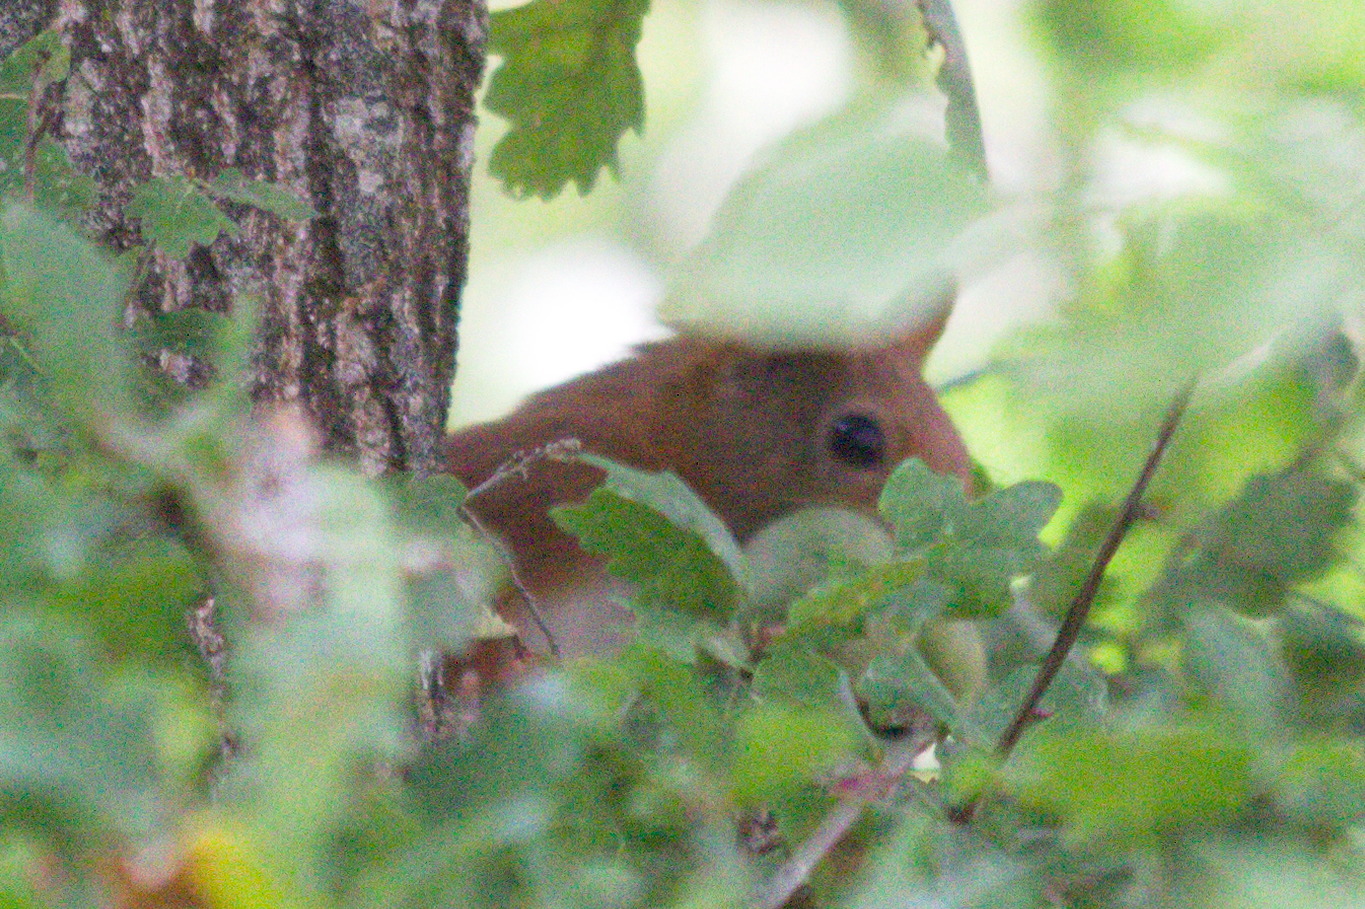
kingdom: Animalia
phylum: Chordata
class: Mammalia
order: Rodentia
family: Sciuridae
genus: Sciurus
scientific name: Sciurus vulgaris
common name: Eurasian red squirrel
